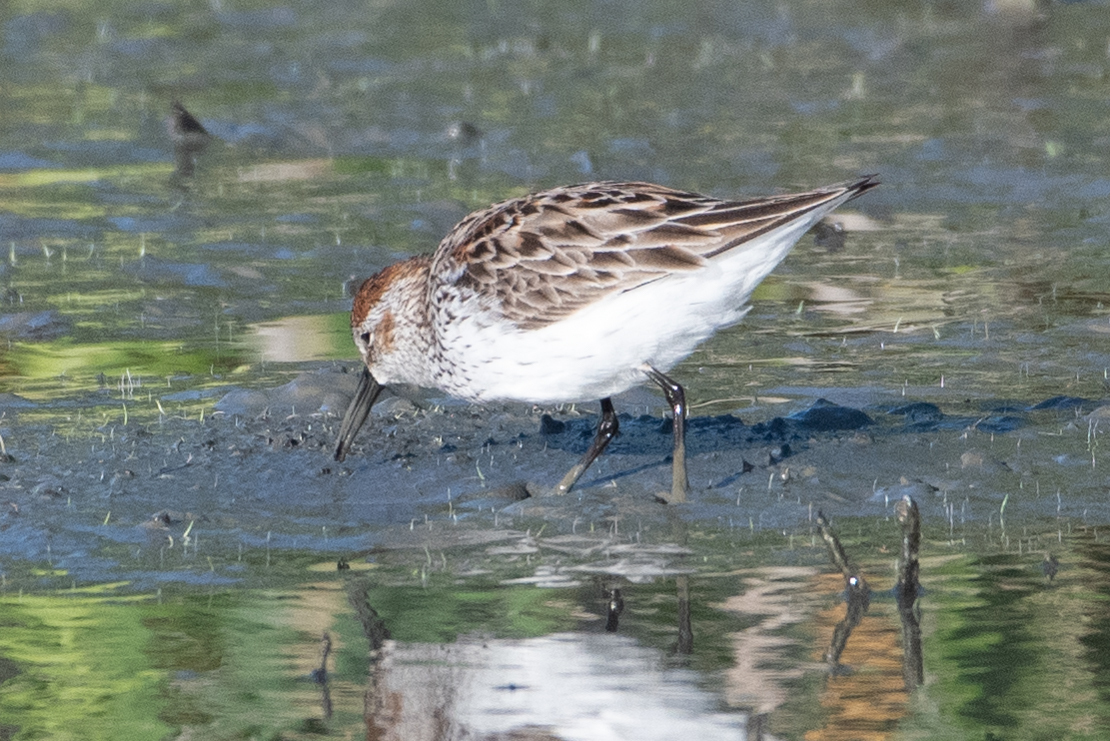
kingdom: Animalia
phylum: Chordata
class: Aves
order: Charadriiformes
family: Scolopacidae
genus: Calidris
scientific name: Calidris mauri
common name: Western sandpiper
